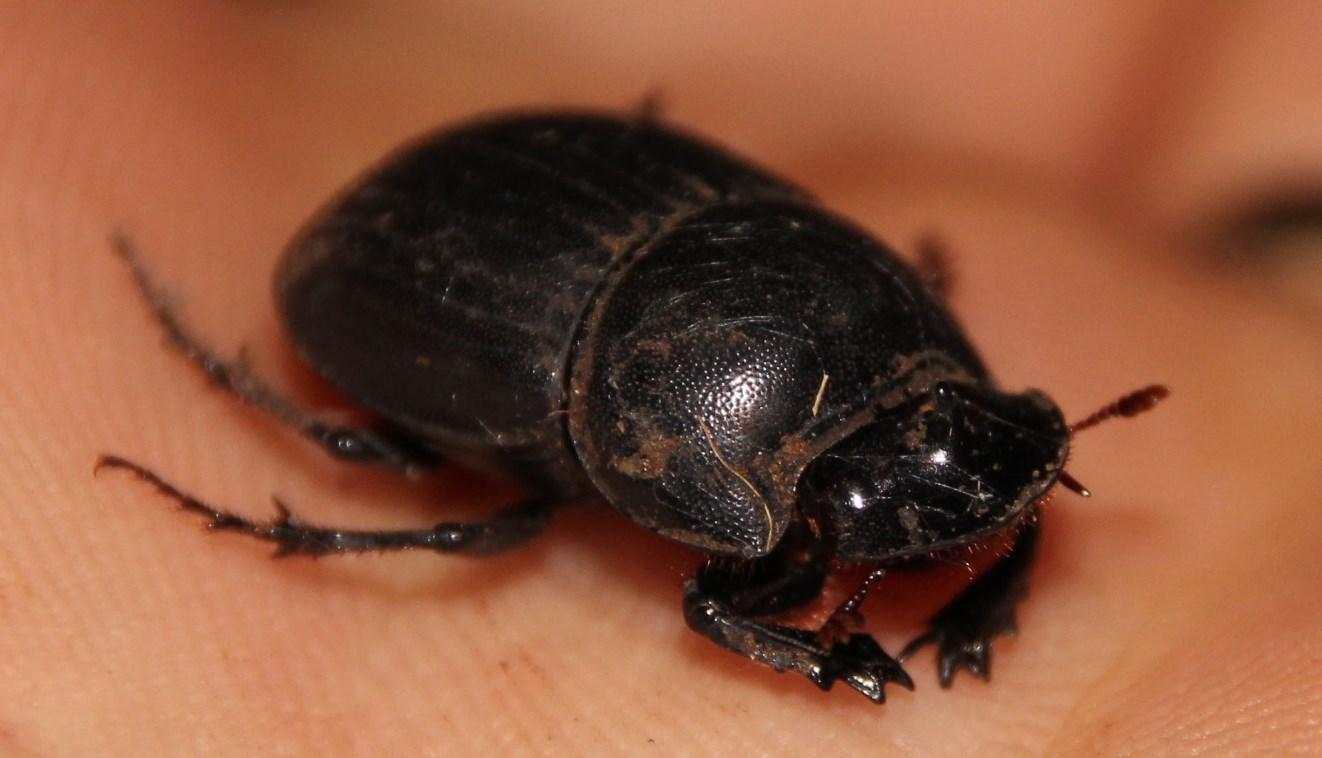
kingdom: Animalia
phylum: Arthropoda
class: Insecta
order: Coleoptera
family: Scarabaeidae
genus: Copris
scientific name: Copris fidius
